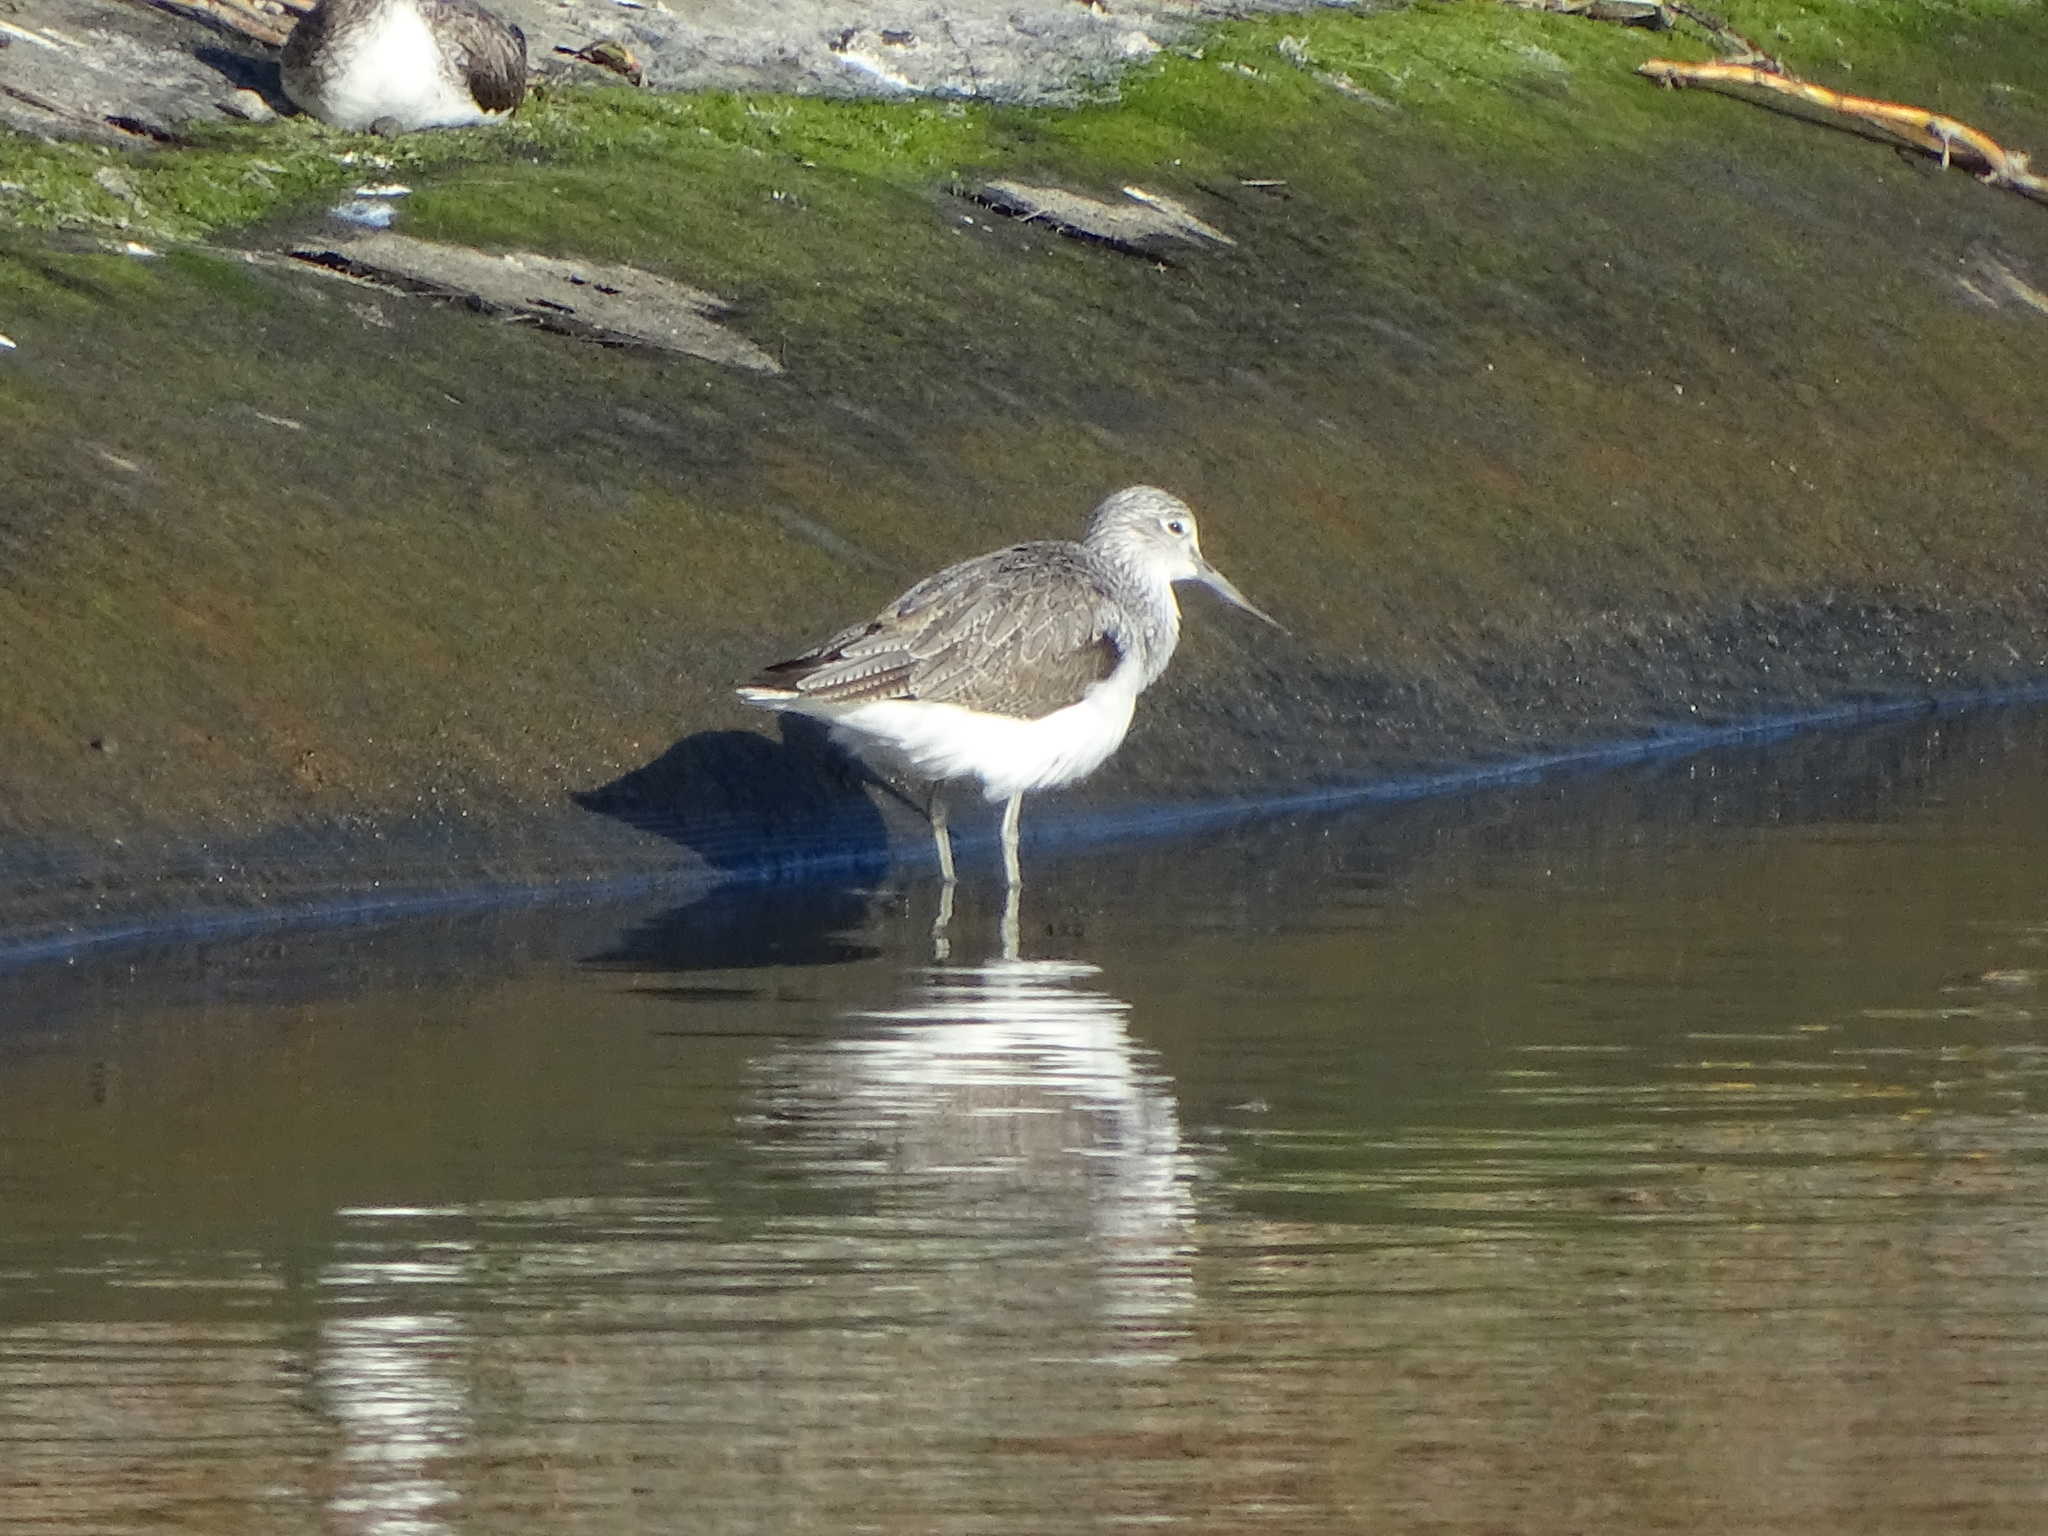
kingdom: Animalia
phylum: Chordata
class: Aves
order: Charadriiformes
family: Scolopacidae
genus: Tringa
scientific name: Tringa nebularia
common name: Common greenshank
